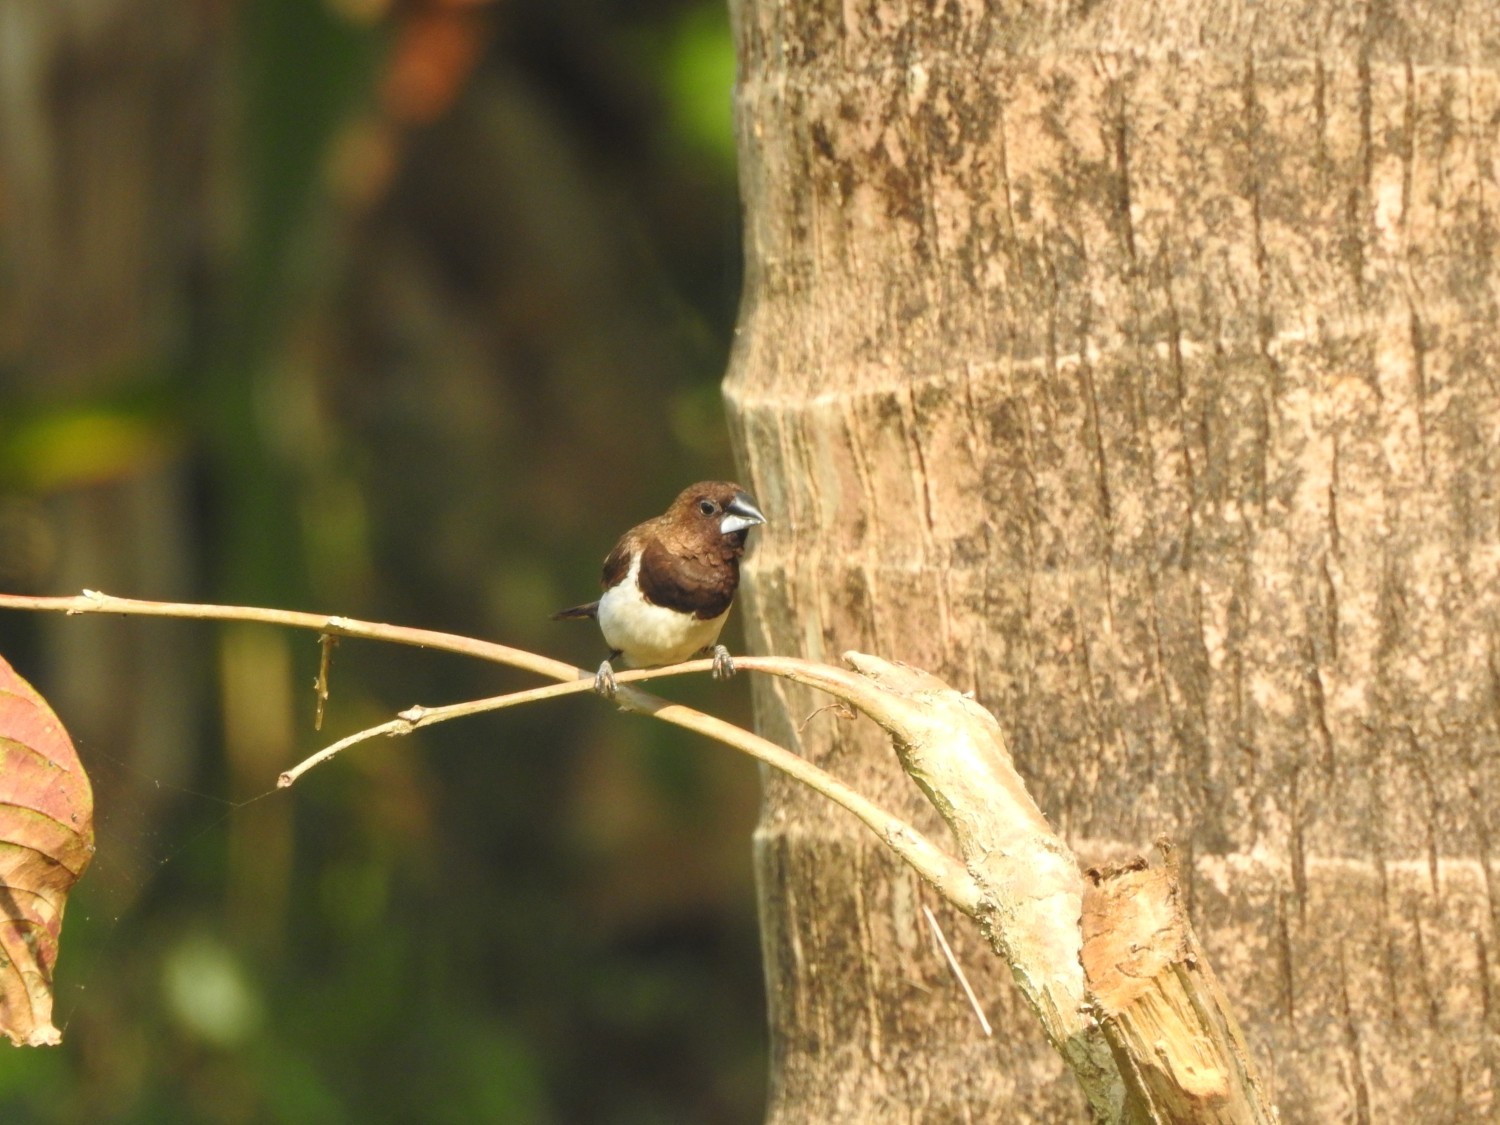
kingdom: Animalia
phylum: Chordata
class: Aves
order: Passeriformes
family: Estrildidae
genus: Lonchura
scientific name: Lonchura striata
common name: White-rumped munia
